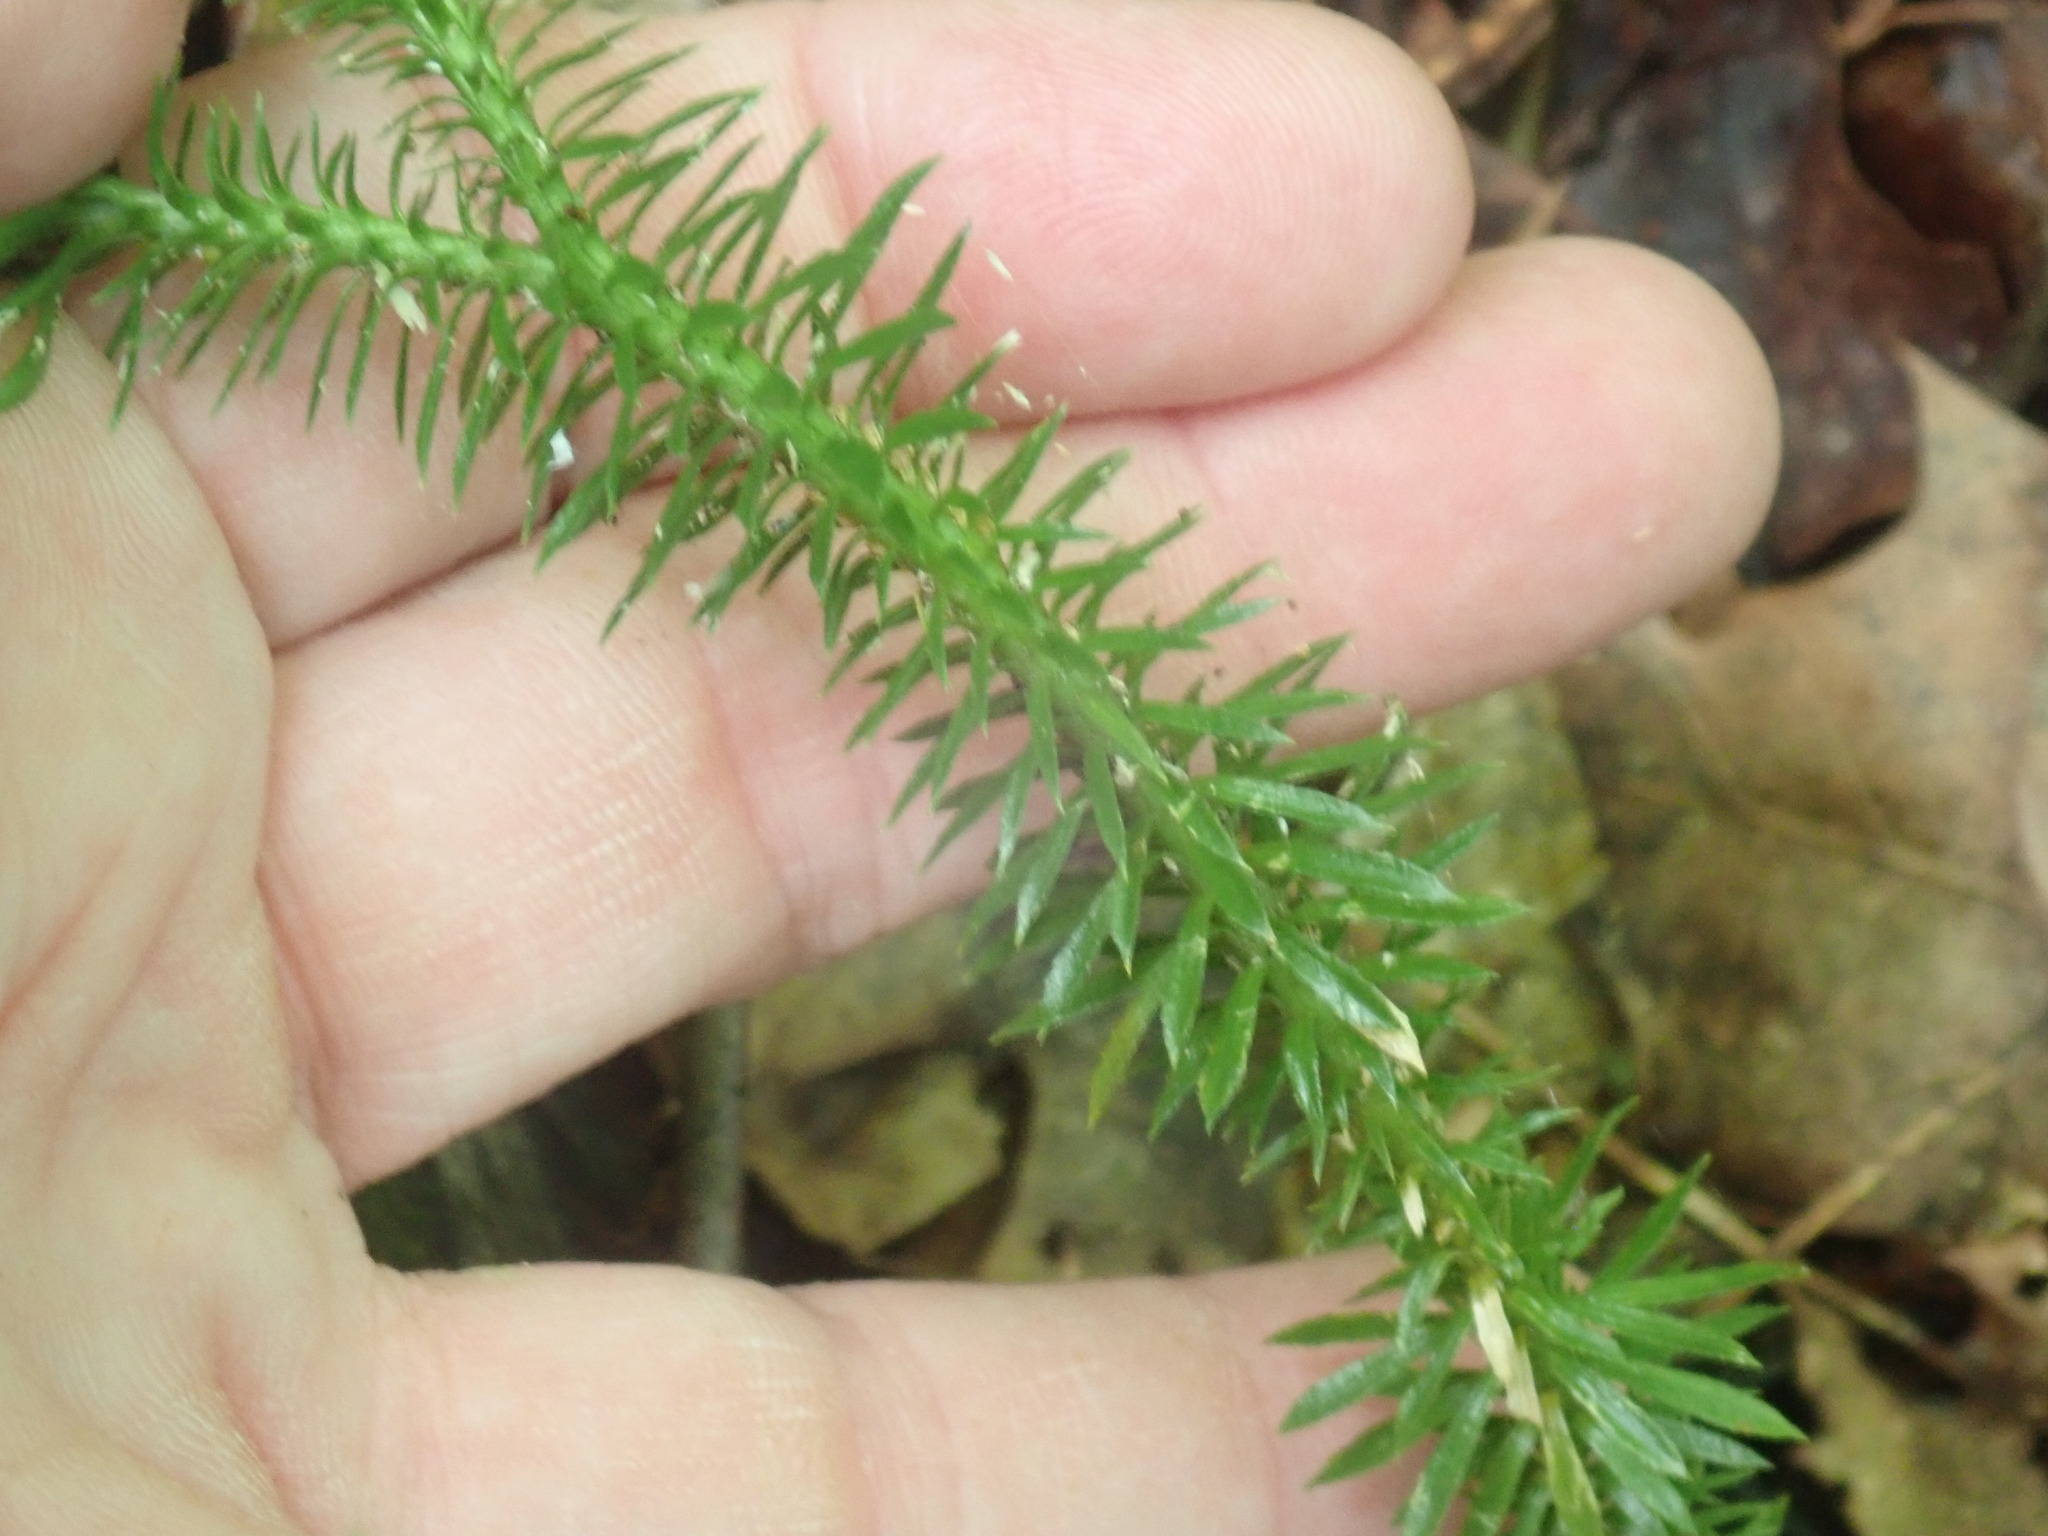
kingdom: Plantae
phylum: Tracheophyta
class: Lycopodiopsida
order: Lycopodiales
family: Lycopodiaceae
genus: Huperzia
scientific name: Huperzia lucidula
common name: Shining clubmoss
